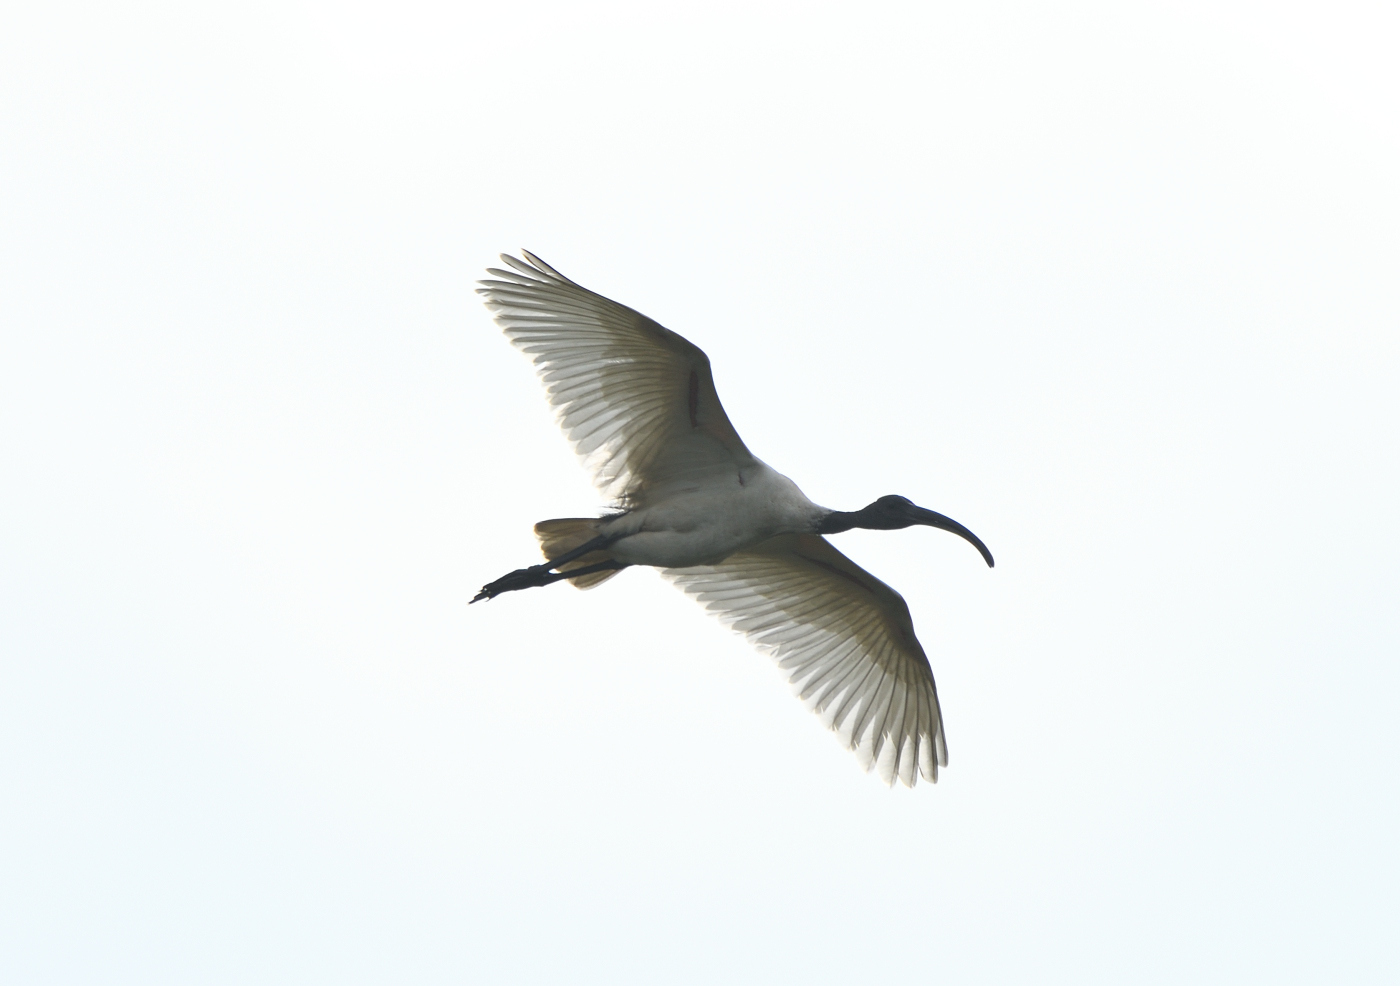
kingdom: Animalia
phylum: Chordata
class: Aves
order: Pelecaniformes
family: Threskiornithidae
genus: Threskiornis
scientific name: Threskiornis melanocephalus
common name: Black-headed ibis
